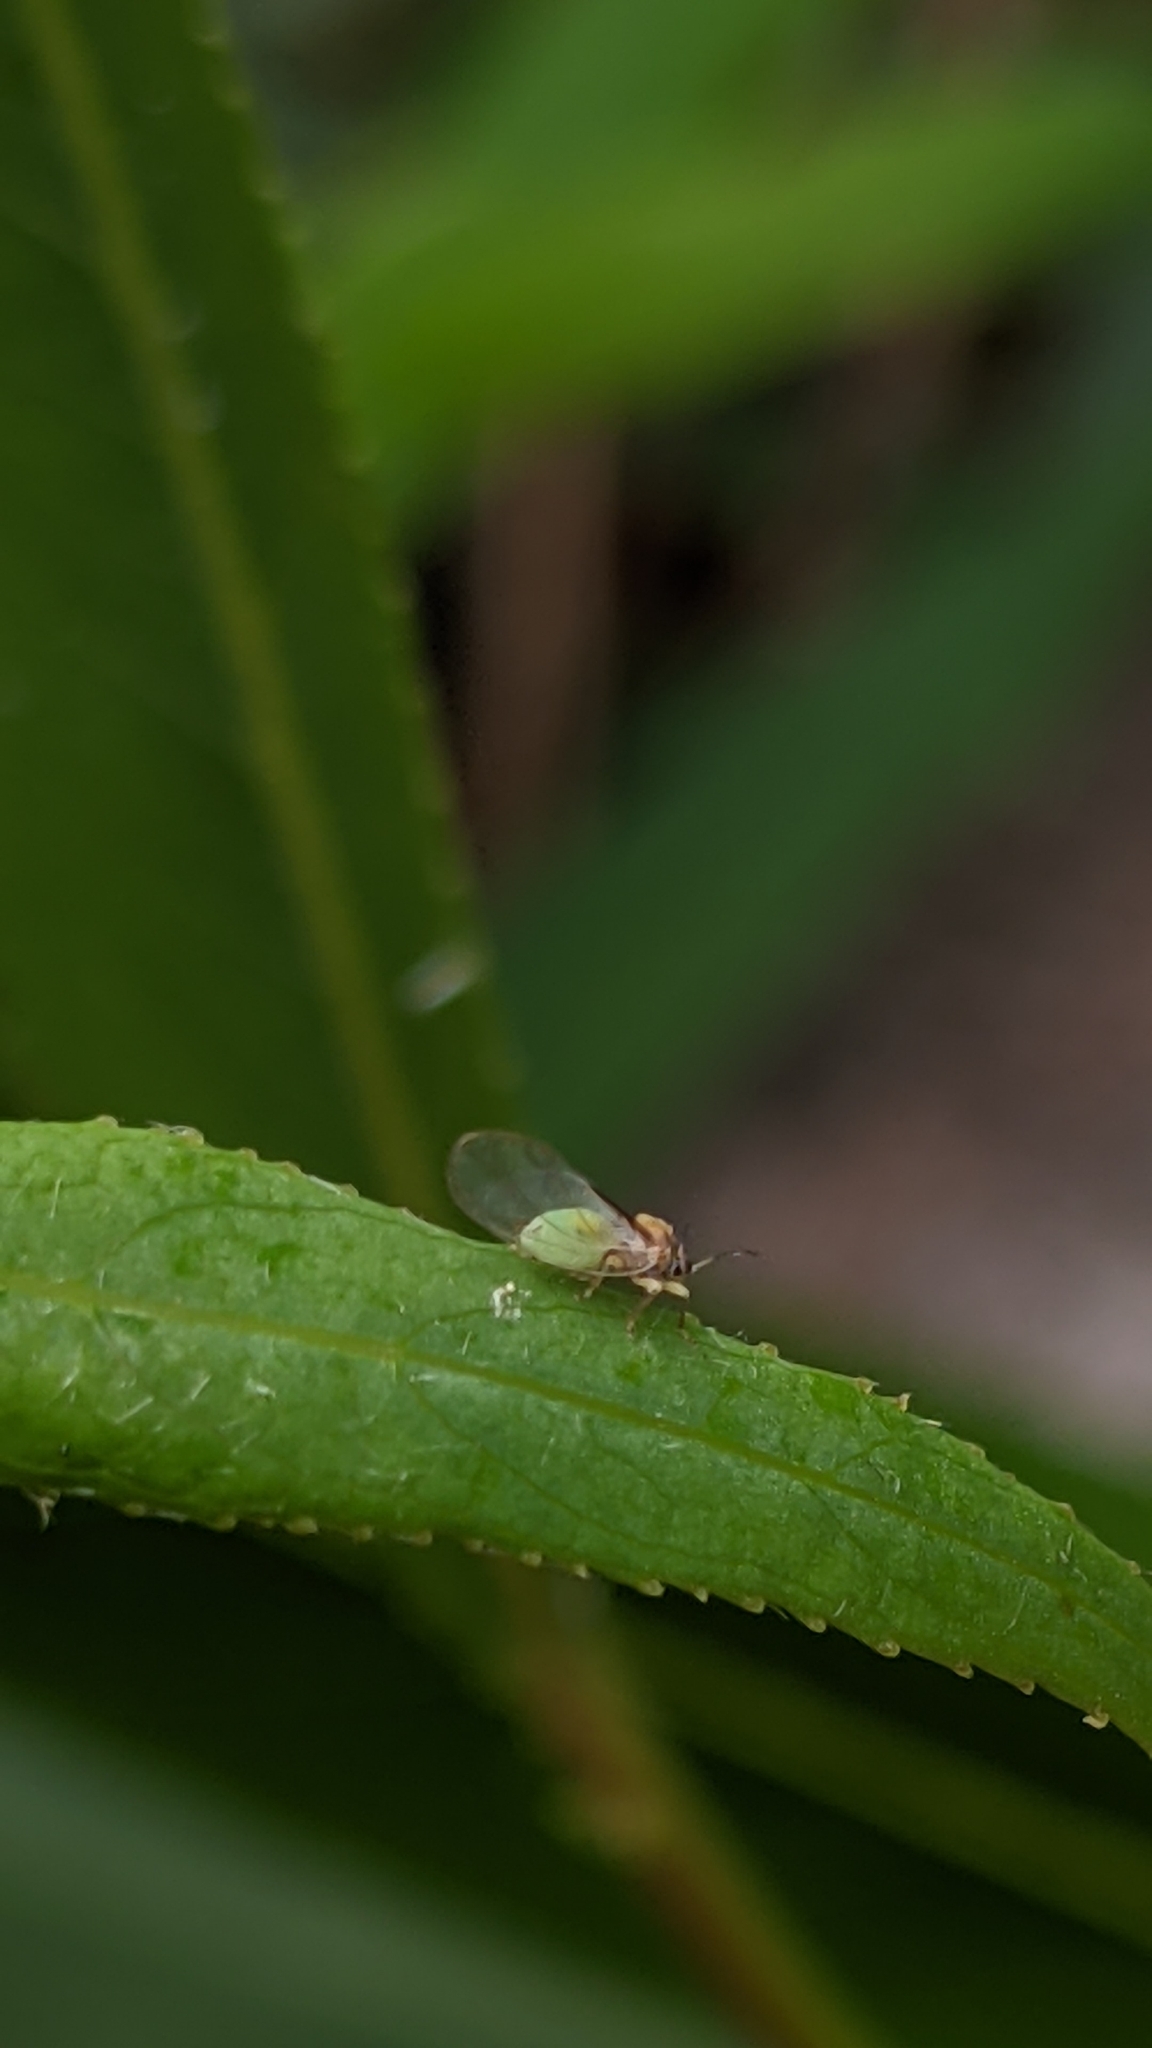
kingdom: Animalia
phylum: Arthropoda
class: Insecta
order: Hemiptera
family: Triozidae
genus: Bactericera
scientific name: Bactericera salicivora
